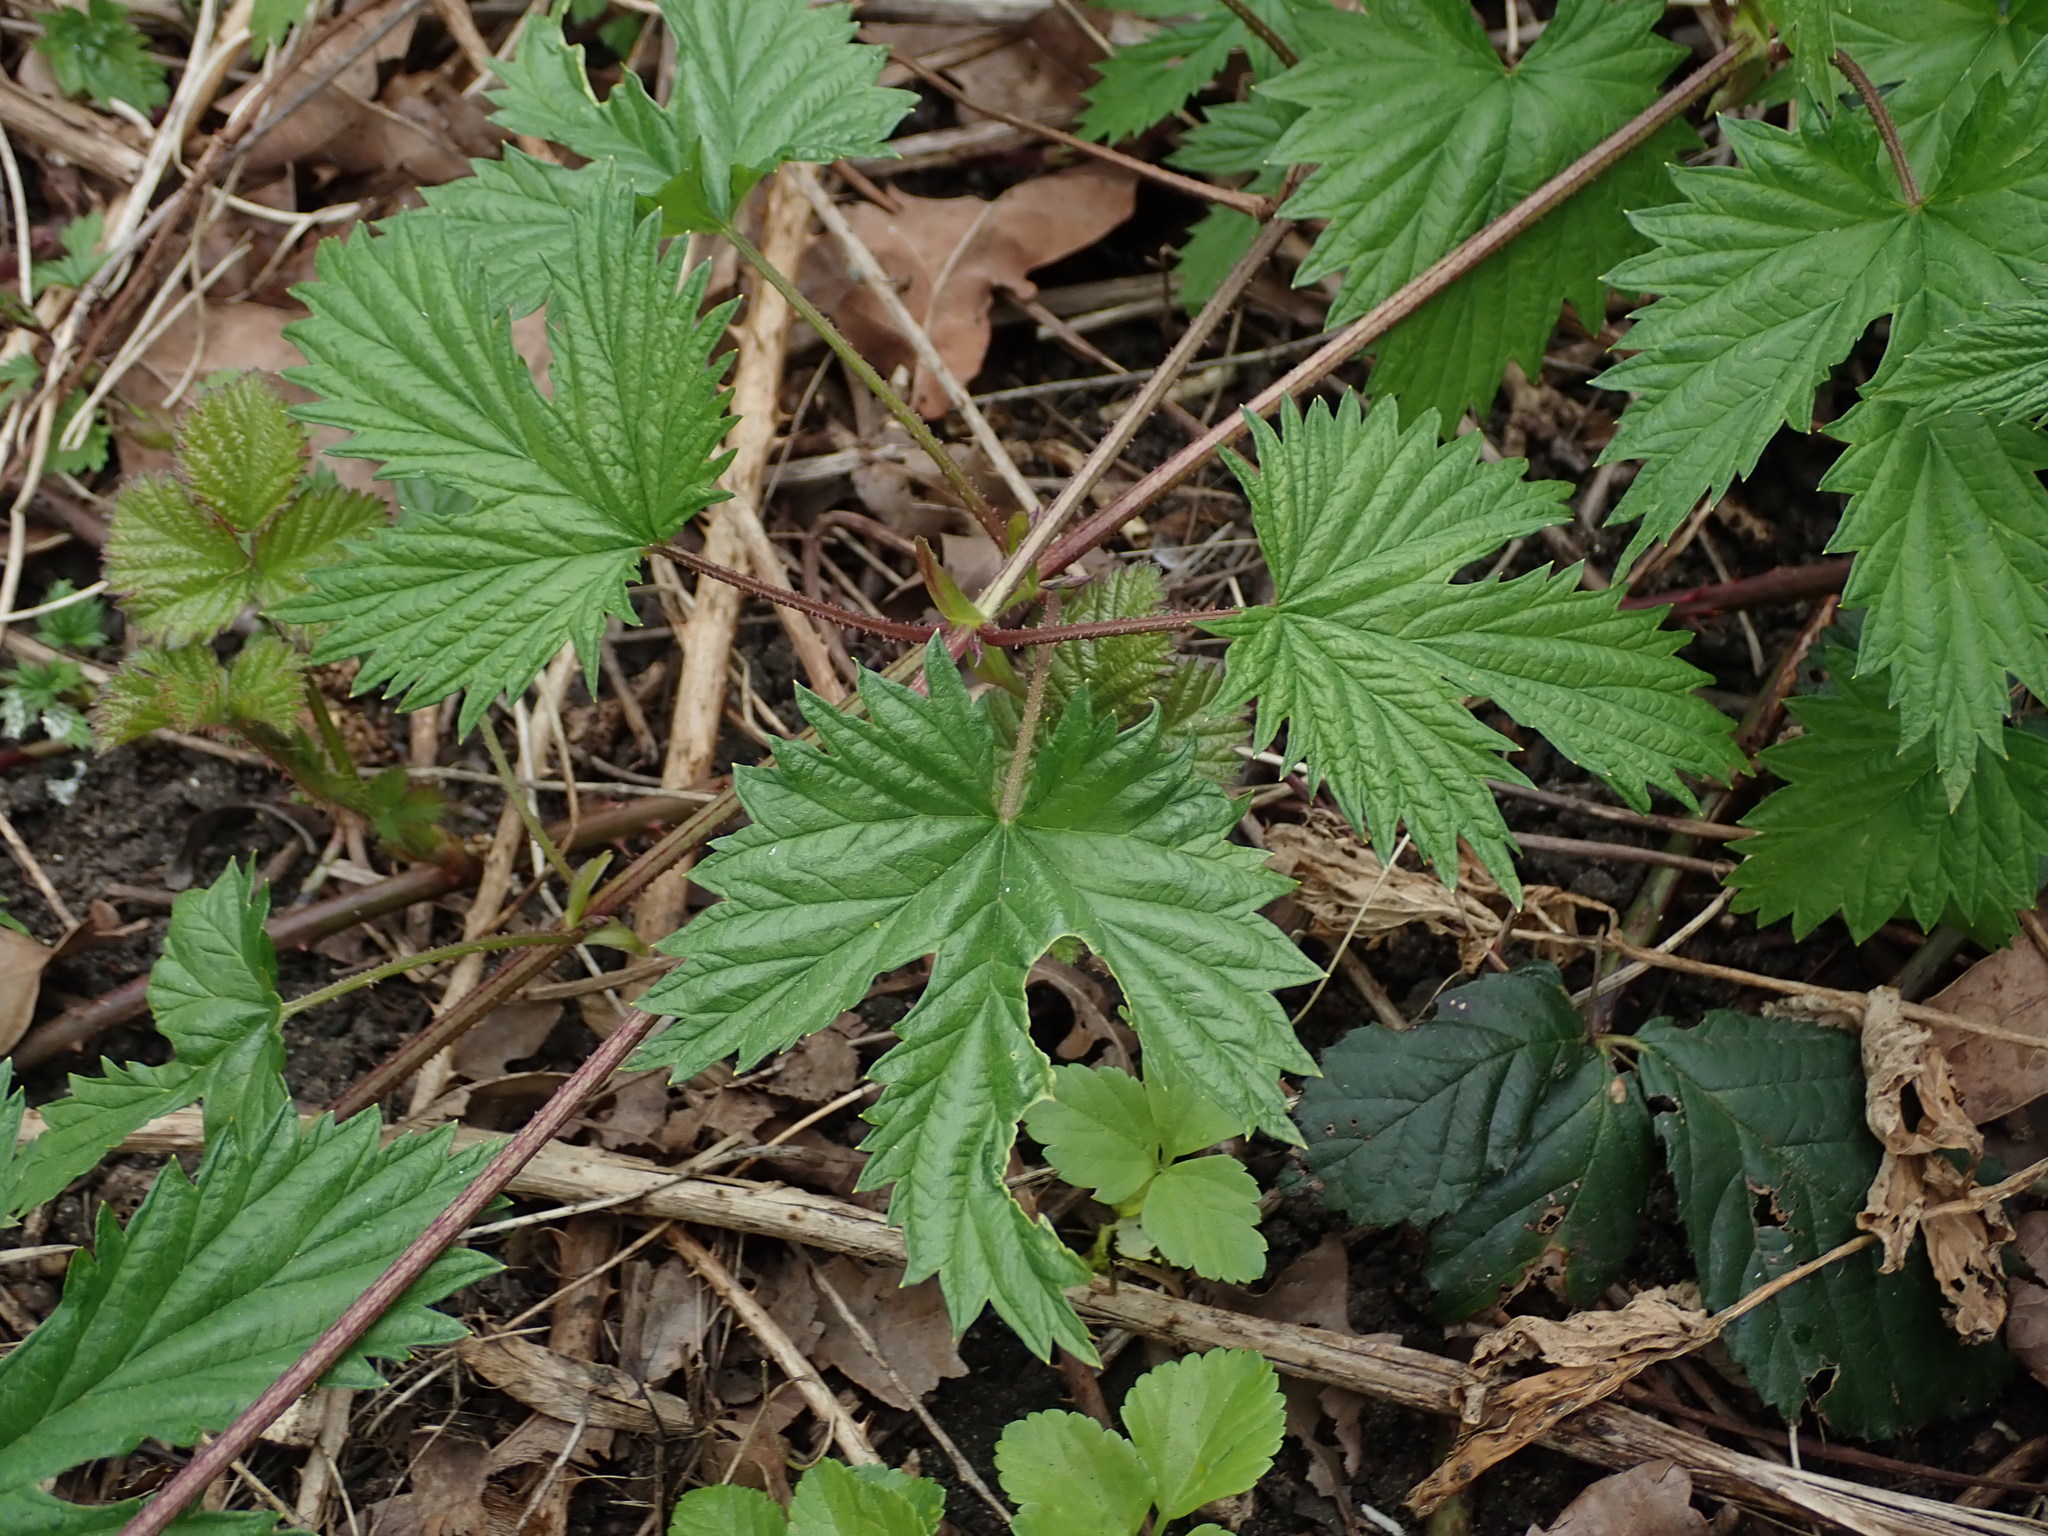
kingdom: Plantae
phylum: Tracheophyta
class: Magnoliopsida
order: Rosales
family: Cannabaceae
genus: Humulus
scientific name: Humulus lupulus
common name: Hop
